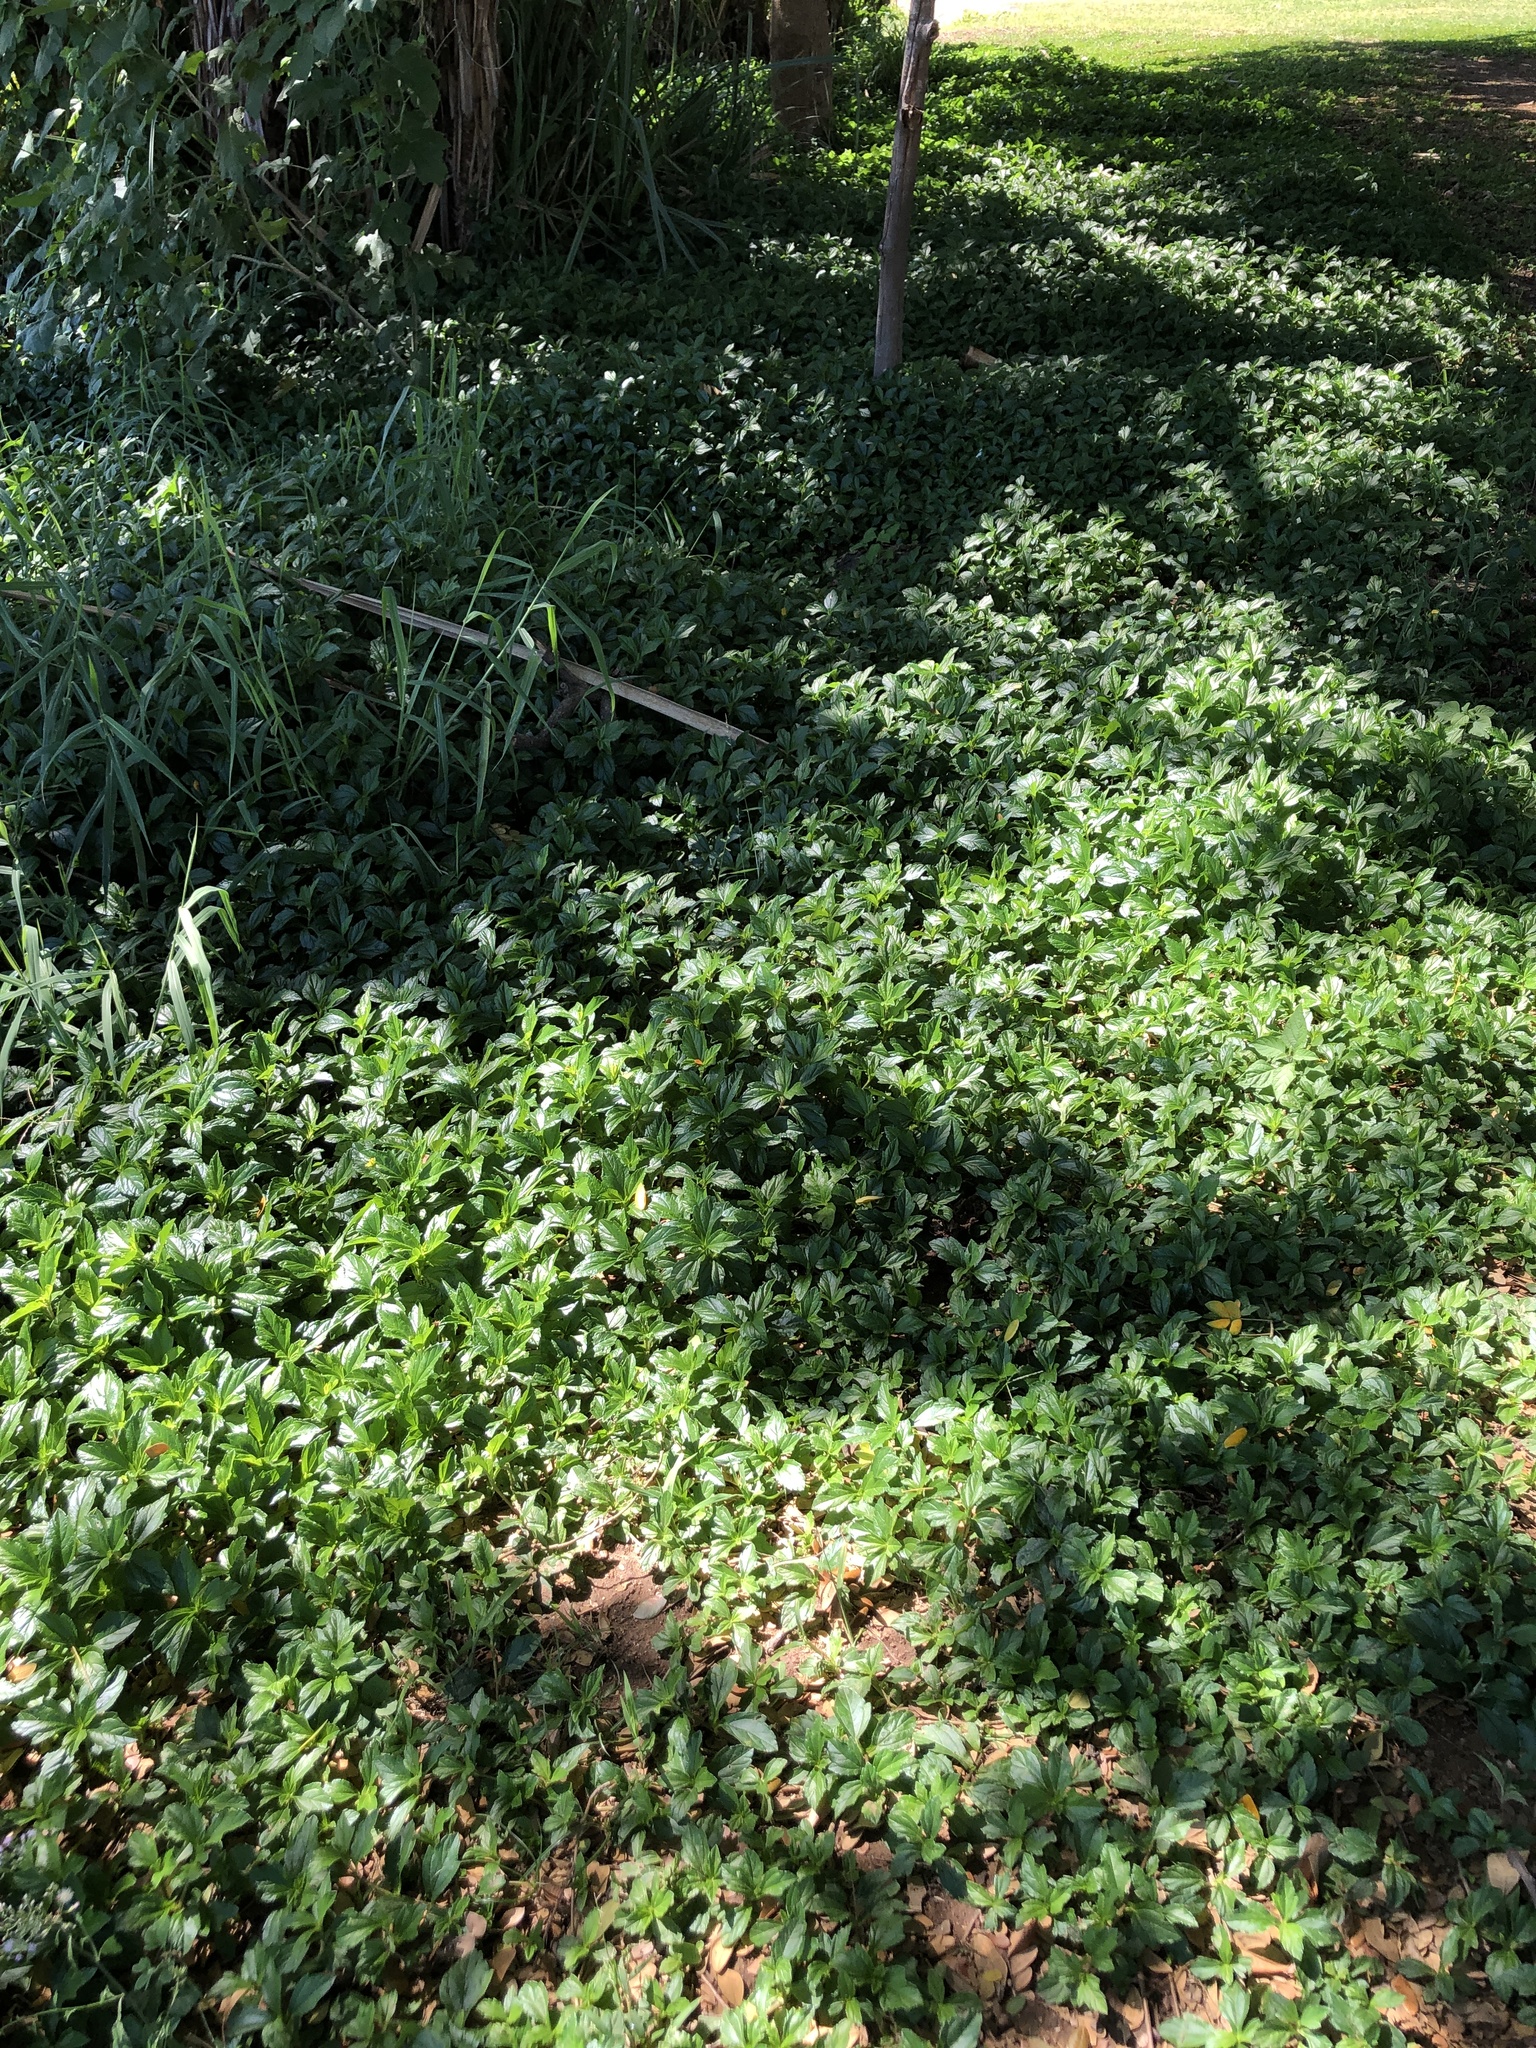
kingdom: Plantae
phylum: Tracheophyta
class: Magnoliopsida
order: Asterales
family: Asteraceae
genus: Sphagneticola
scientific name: Sphagneticola trilobata
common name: Bay biscayne creeping-oxeye
